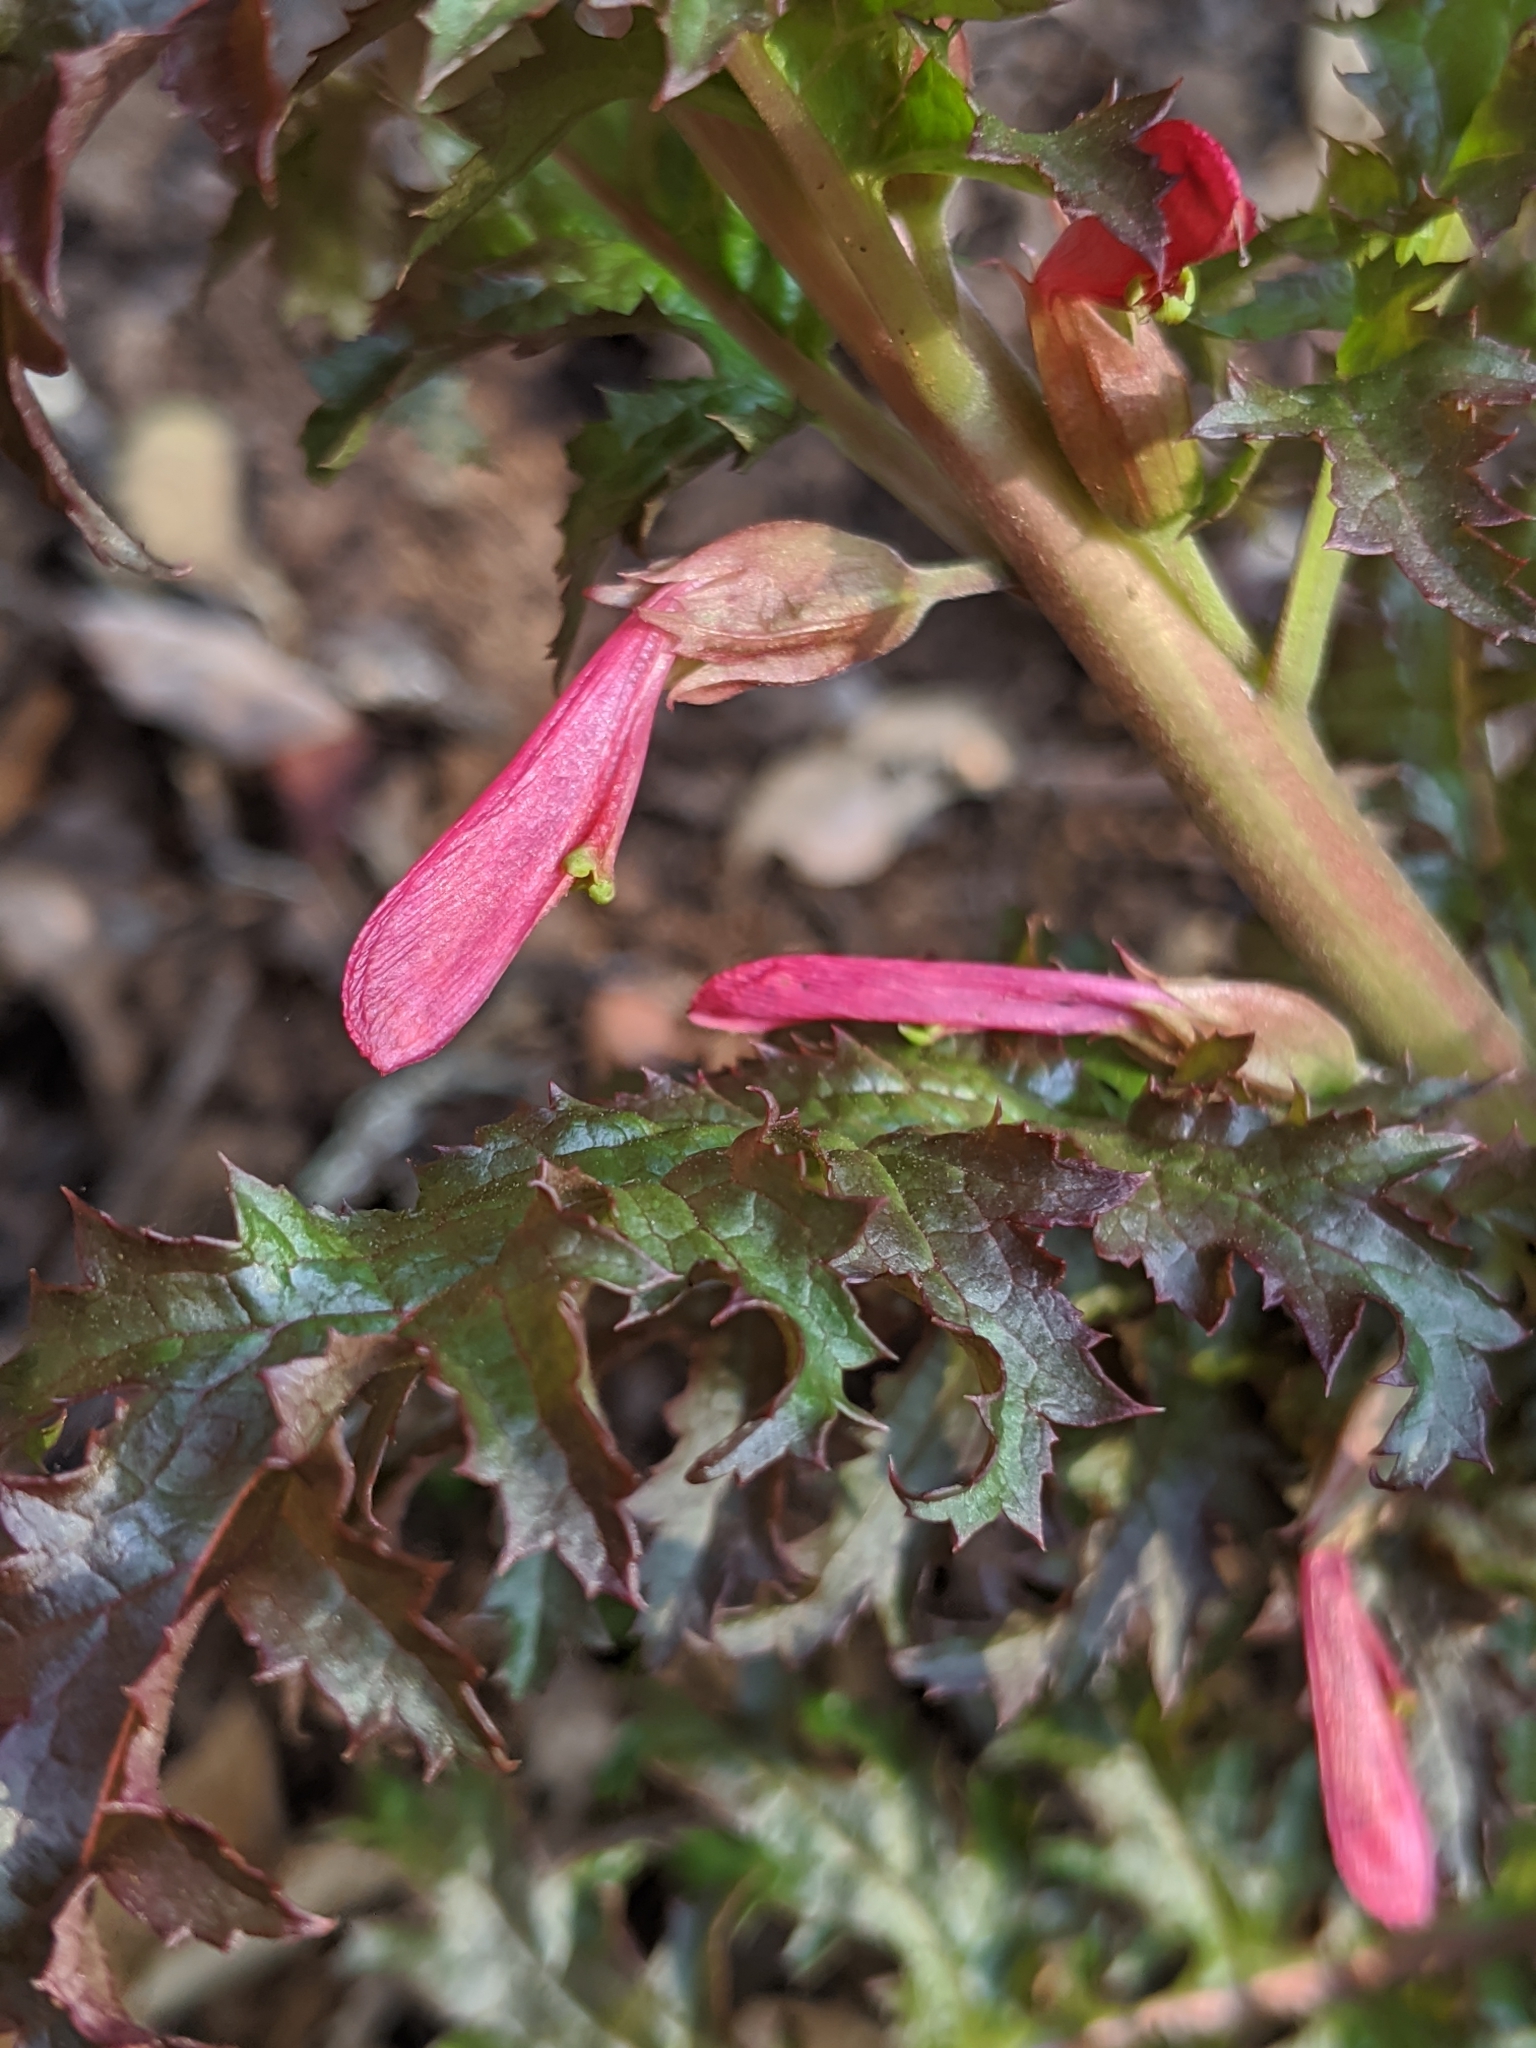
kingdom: Plantae
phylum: Tracheophyta
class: Magnoliopsida
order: Lamiales
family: Orobanchaceae
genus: Pedicularis
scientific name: Pedicularis densiflora
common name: Indian warrior
